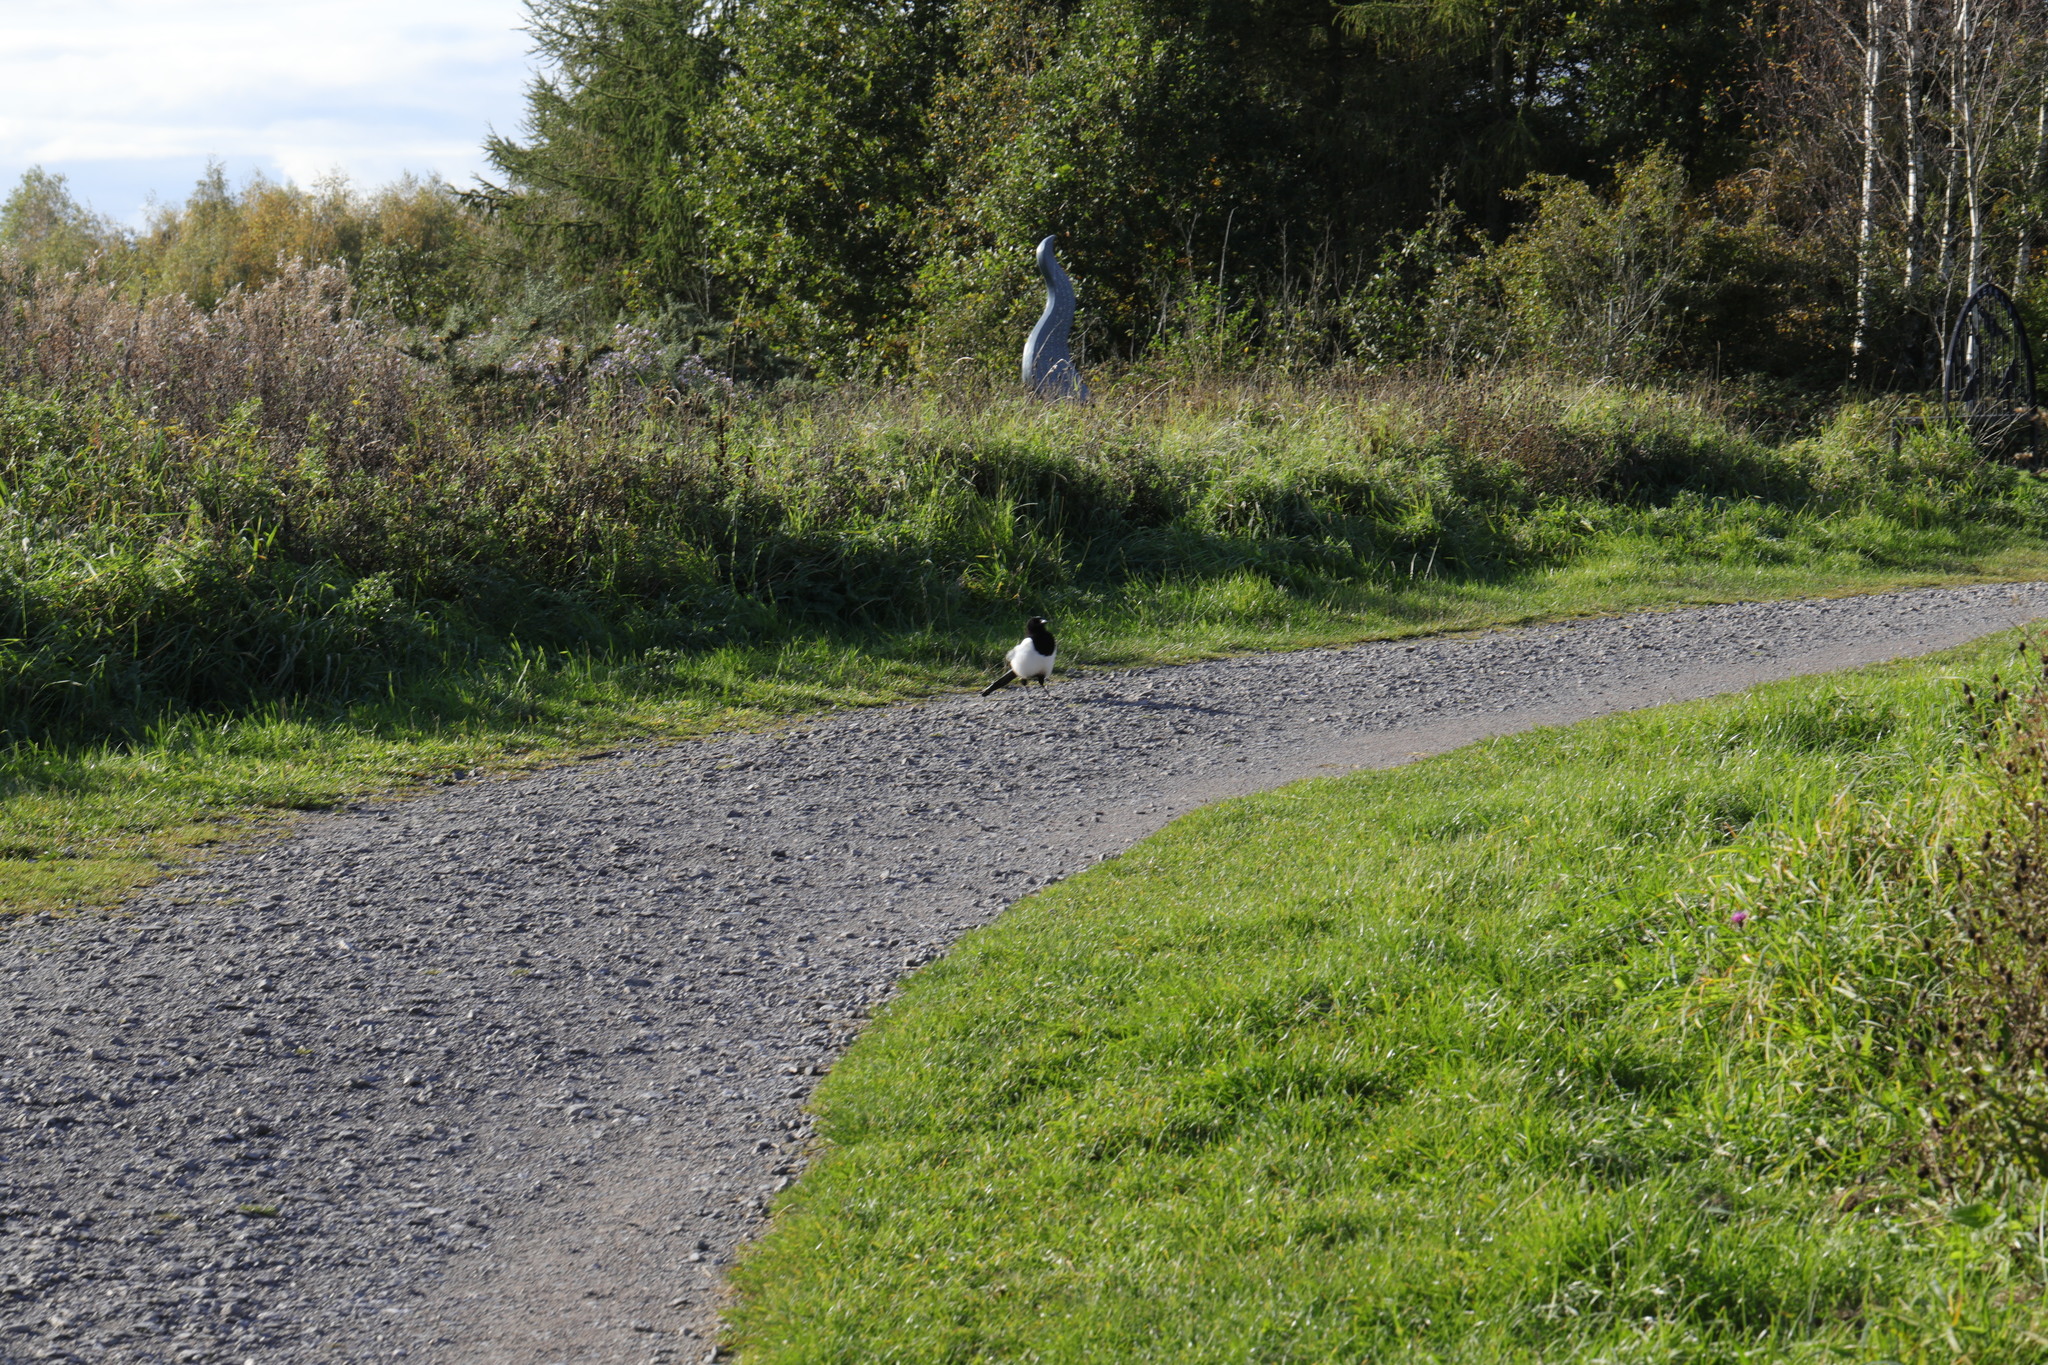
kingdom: Animalia
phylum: Chordata
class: Aves
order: Passeriformes
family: Corvidae
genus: Pica
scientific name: Pica pica
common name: Eurasian magpie
